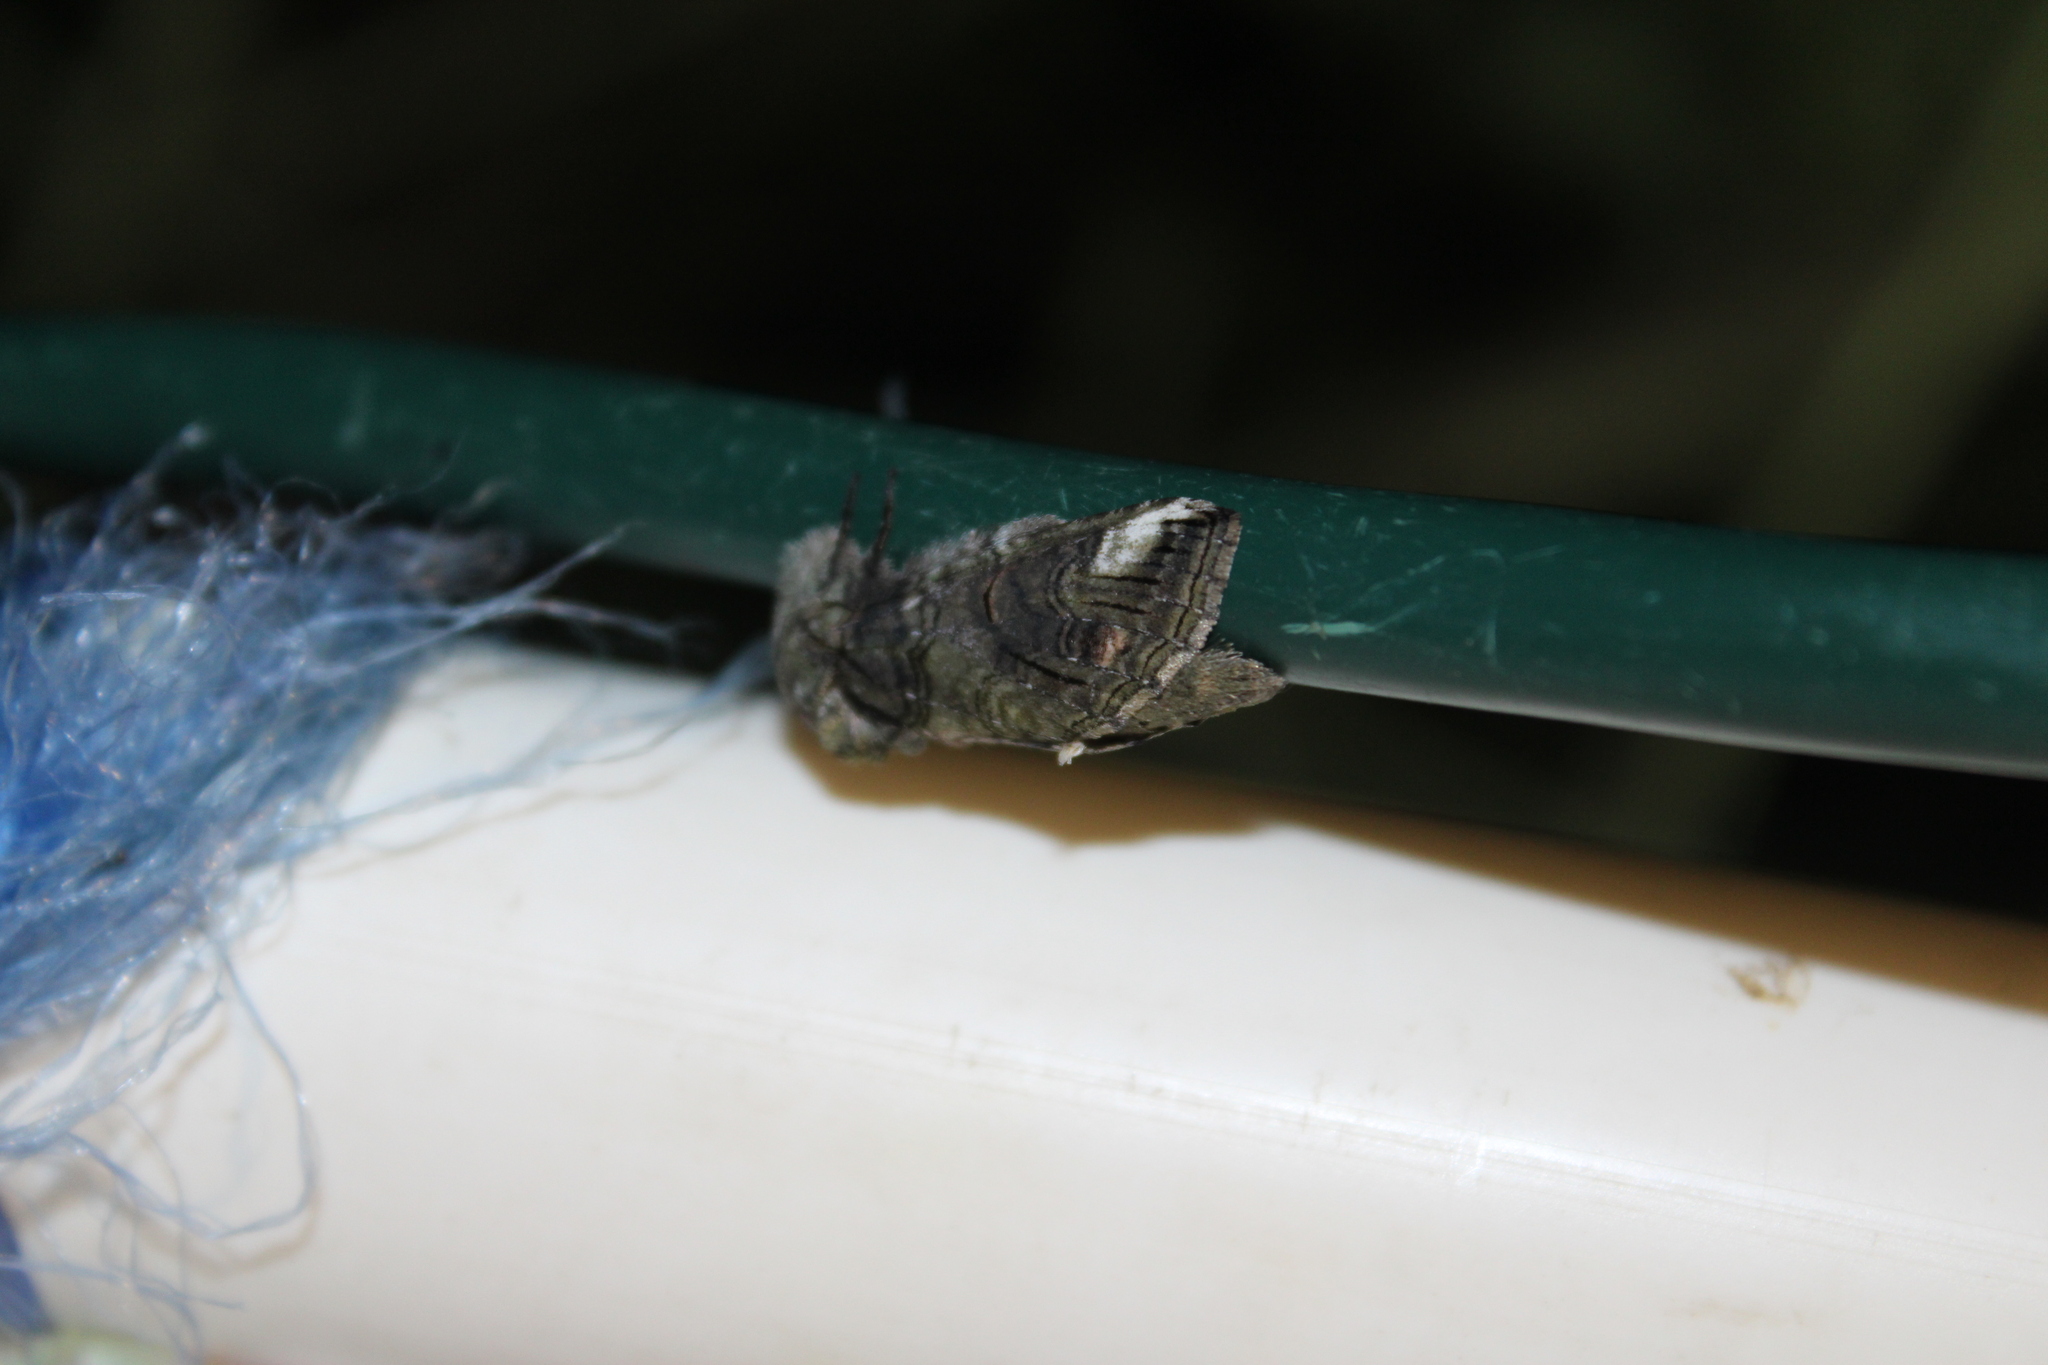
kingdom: Animalia
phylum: Arthropoda
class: Insecta
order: Lepidoptera
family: Notodontidae
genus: Heterocampa
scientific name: Heterocampa obliqua
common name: Oblique heterocampa
